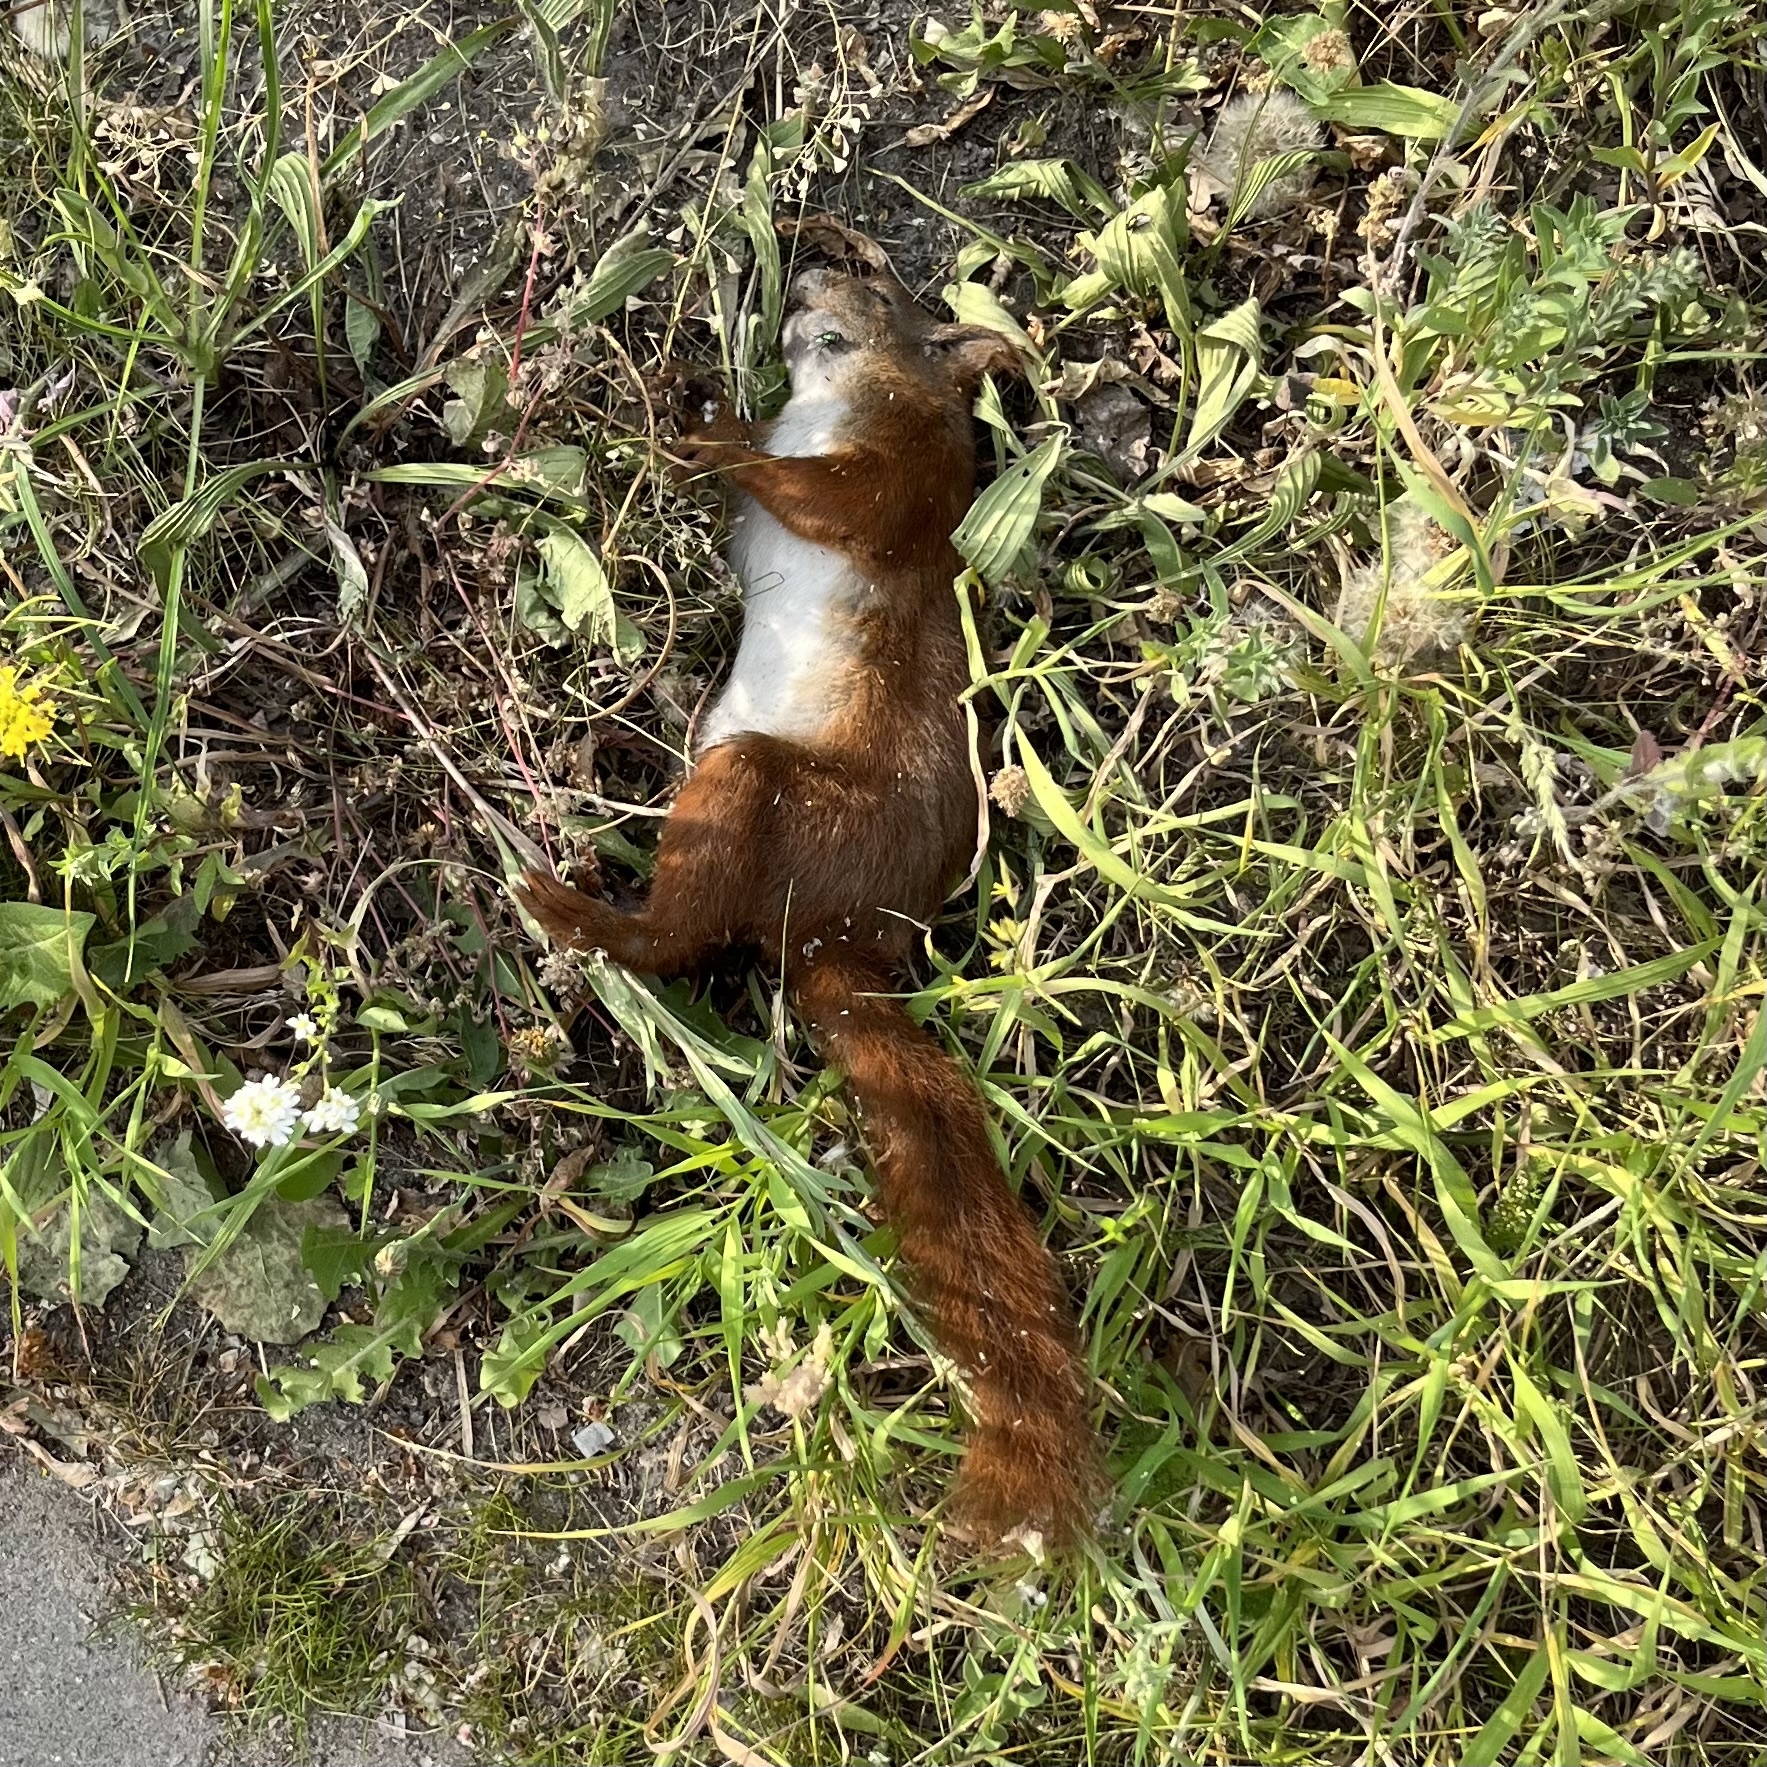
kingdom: Animalia
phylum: Chordata
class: Mammalia
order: Rodentia
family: Sciuridae
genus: Sciurus
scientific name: Sciurus vulgaris
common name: Eurasian red squirrel
